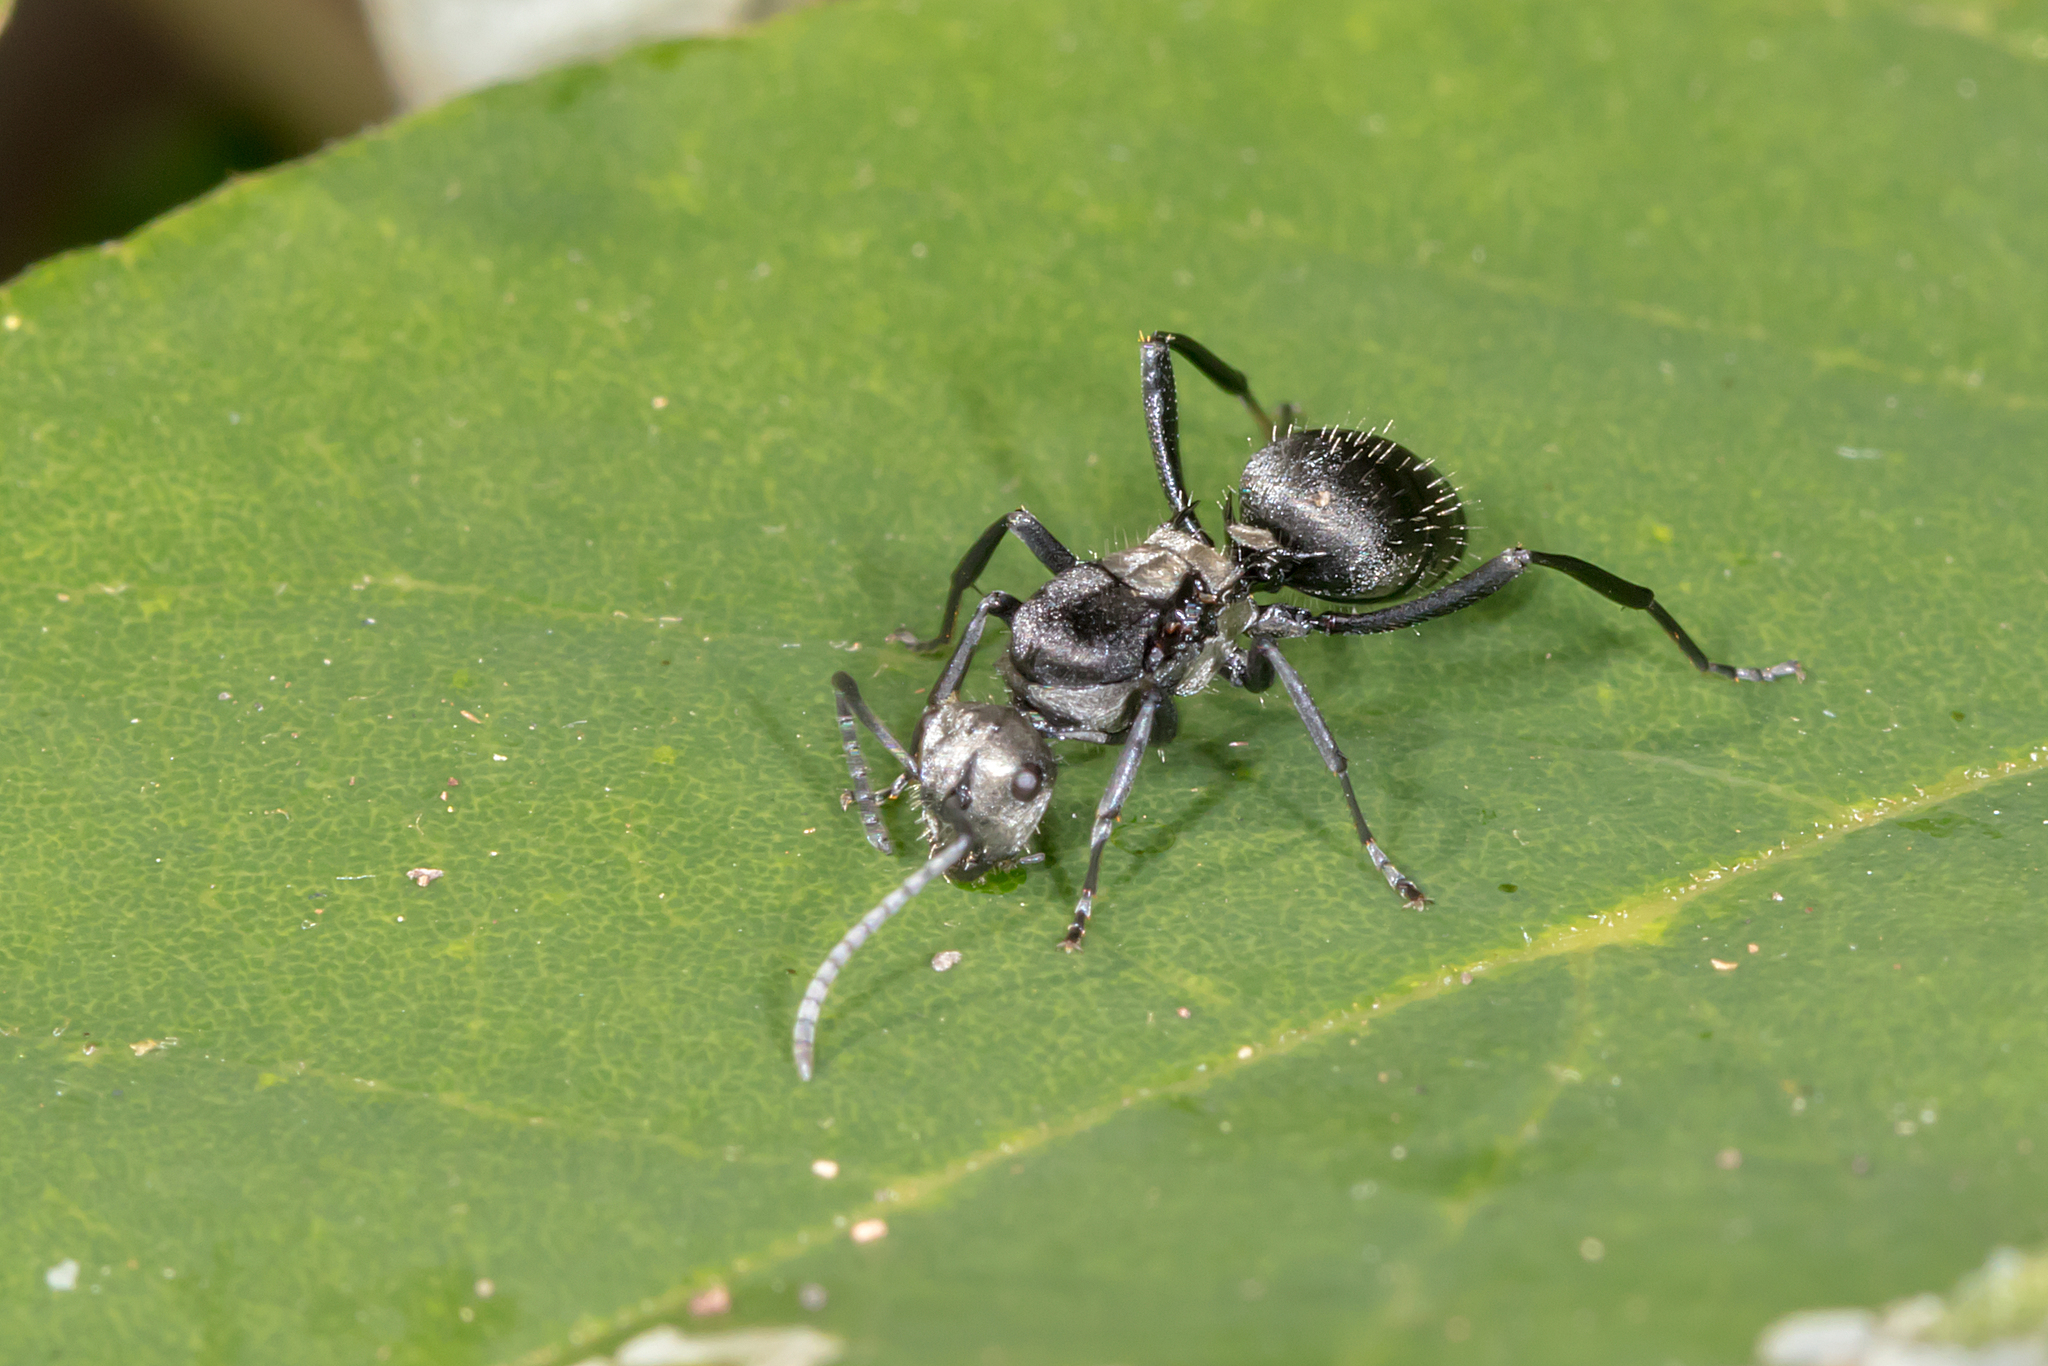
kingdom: Animalia
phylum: Arthropoda
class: Insecta
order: Hymenoptera
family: Formicidae
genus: Polyrhachis
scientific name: Polyrhachis daemeli
